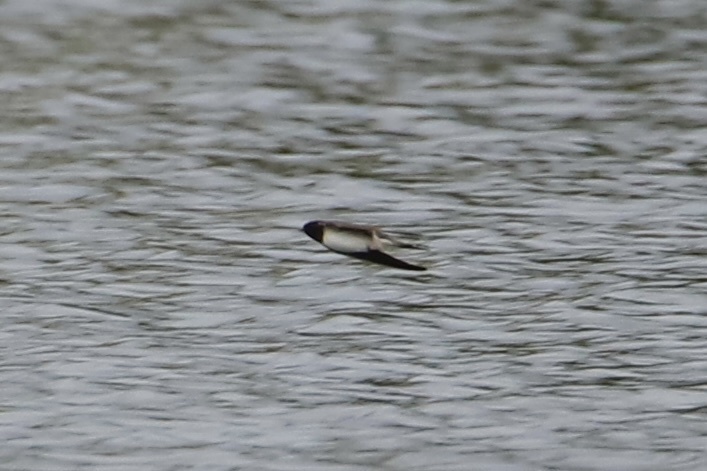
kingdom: Animalia
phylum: Chordata
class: Aves
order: Passeriformes
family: Hirundinidae
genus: Hirundo
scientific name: Hirundo rustica
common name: Barn swallow
